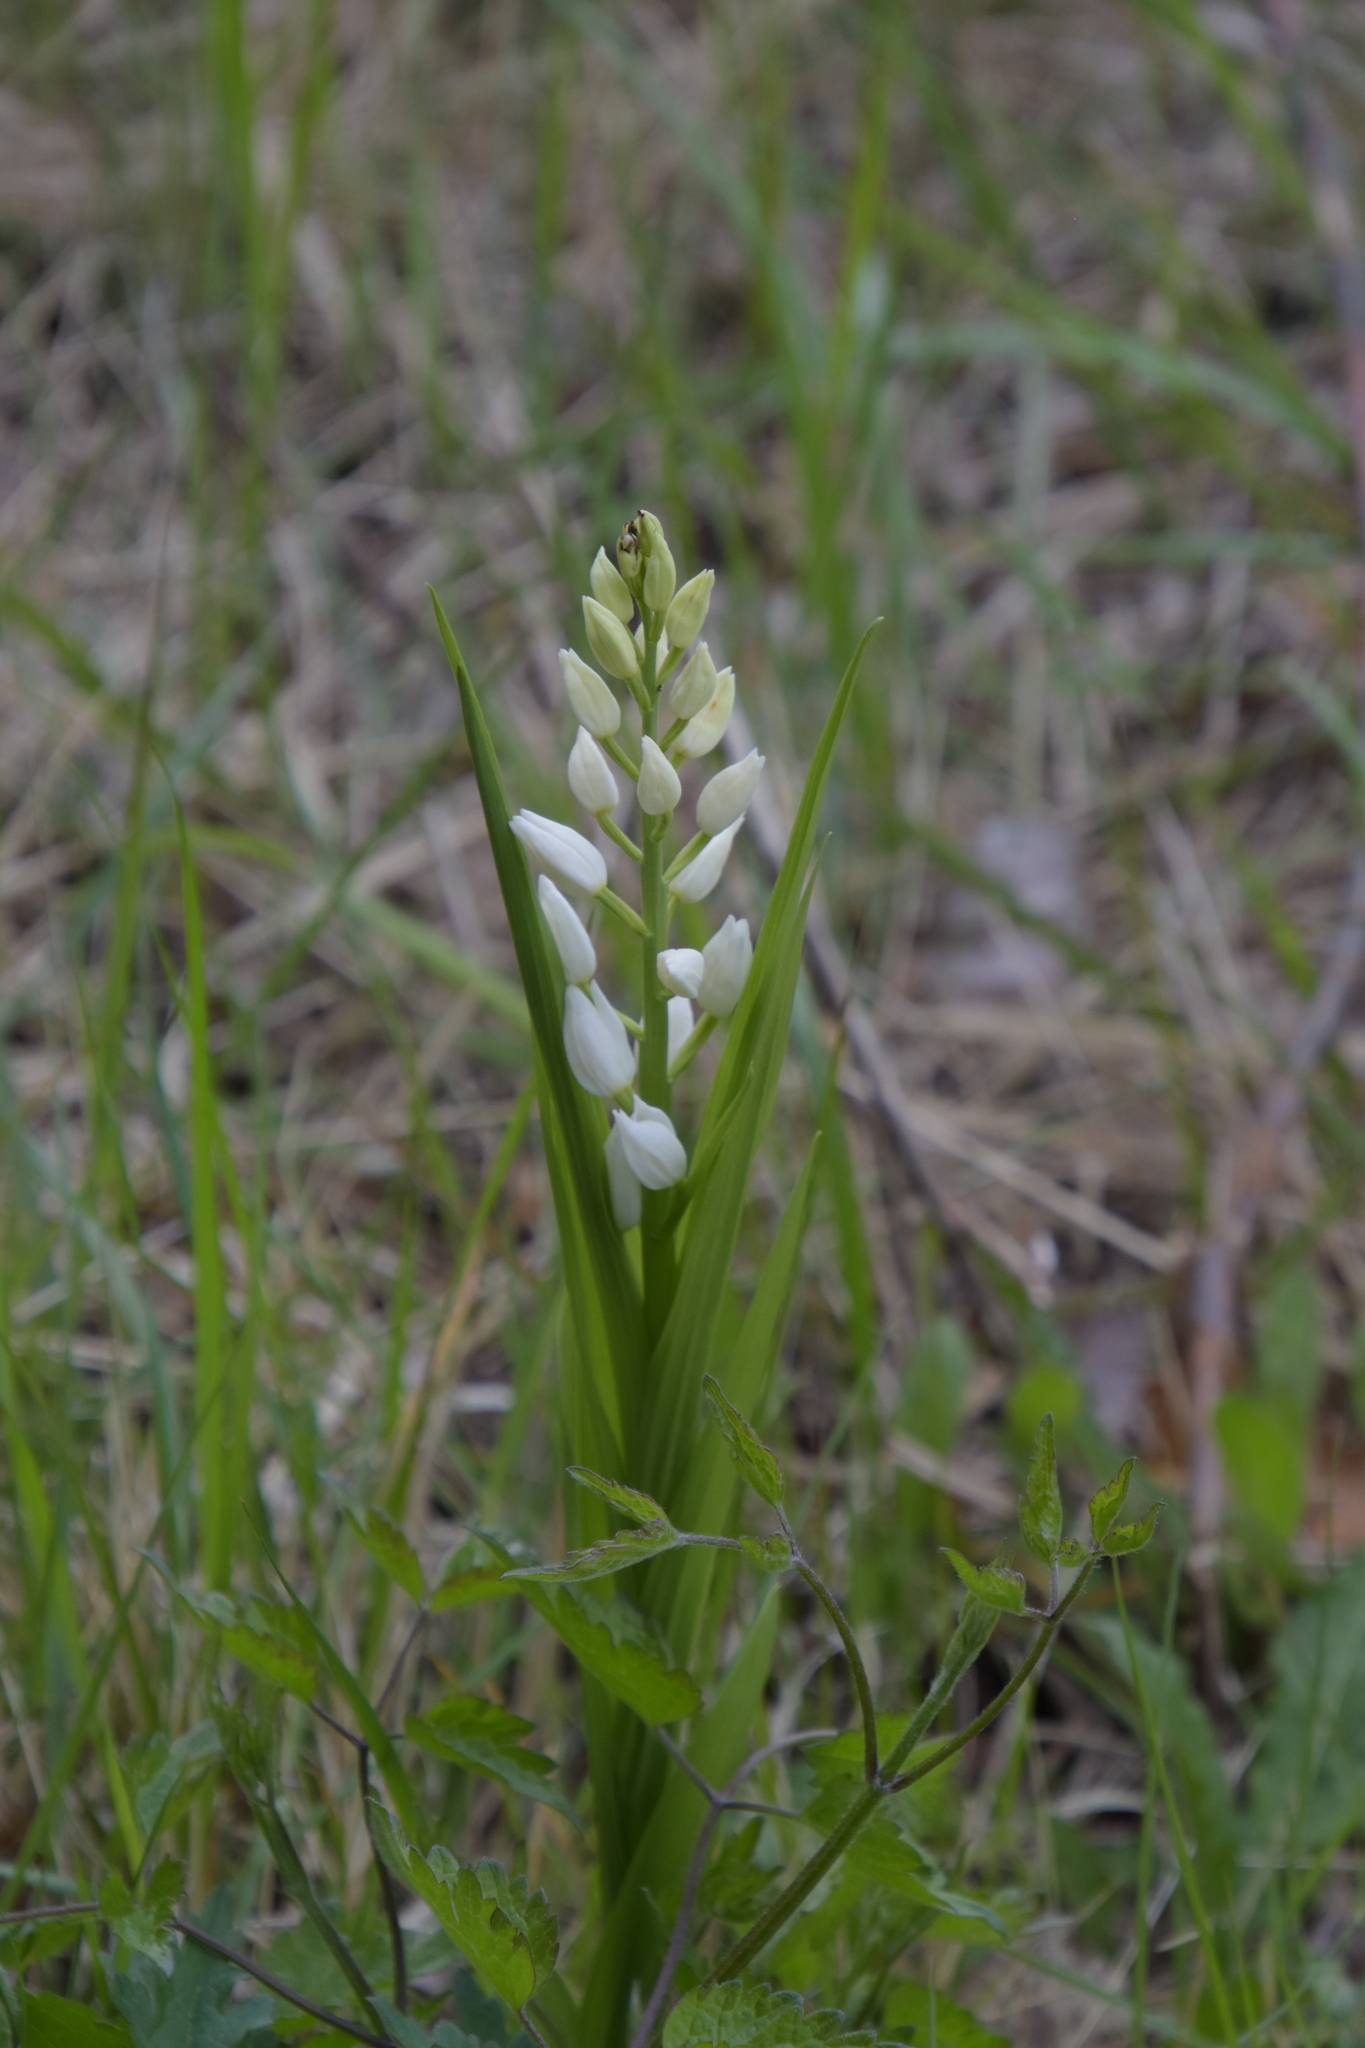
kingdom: Plantae
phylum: Tracheophyta
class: Liliopsida
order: Asparagales
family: Orchidaceae
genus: Cephalanthera
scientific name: Cephalanthera longifolia
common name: Narrow-leaved helleborine
